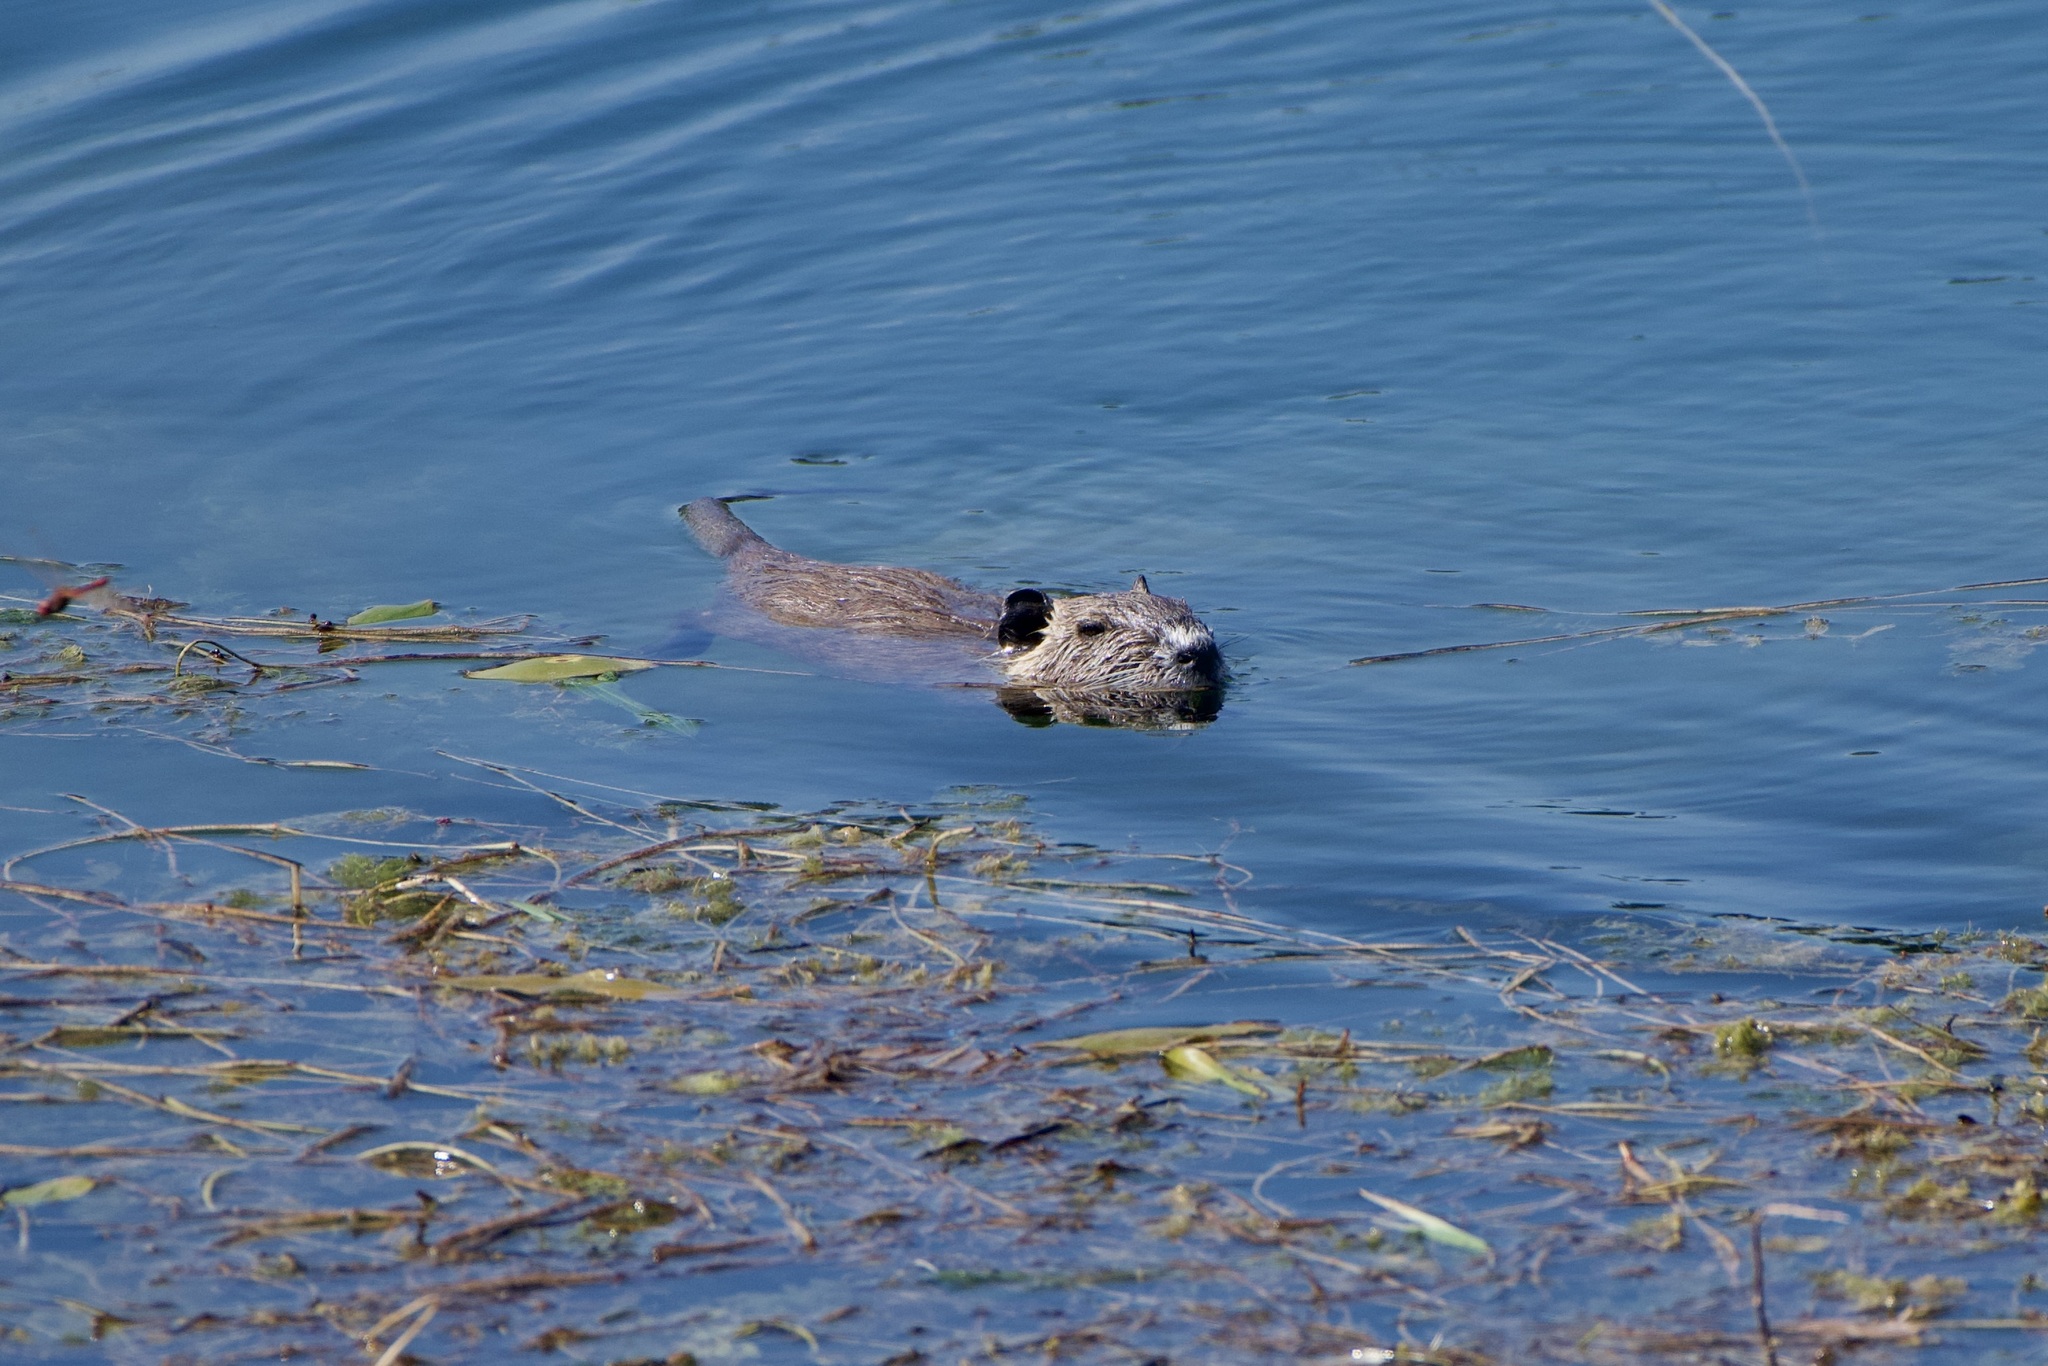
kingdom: Animalia
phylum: Chordata
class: Mammalia
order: Rodentia
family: Myocastoridae
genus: Myocastor
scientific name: Myocastor coypus
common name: Coypu
